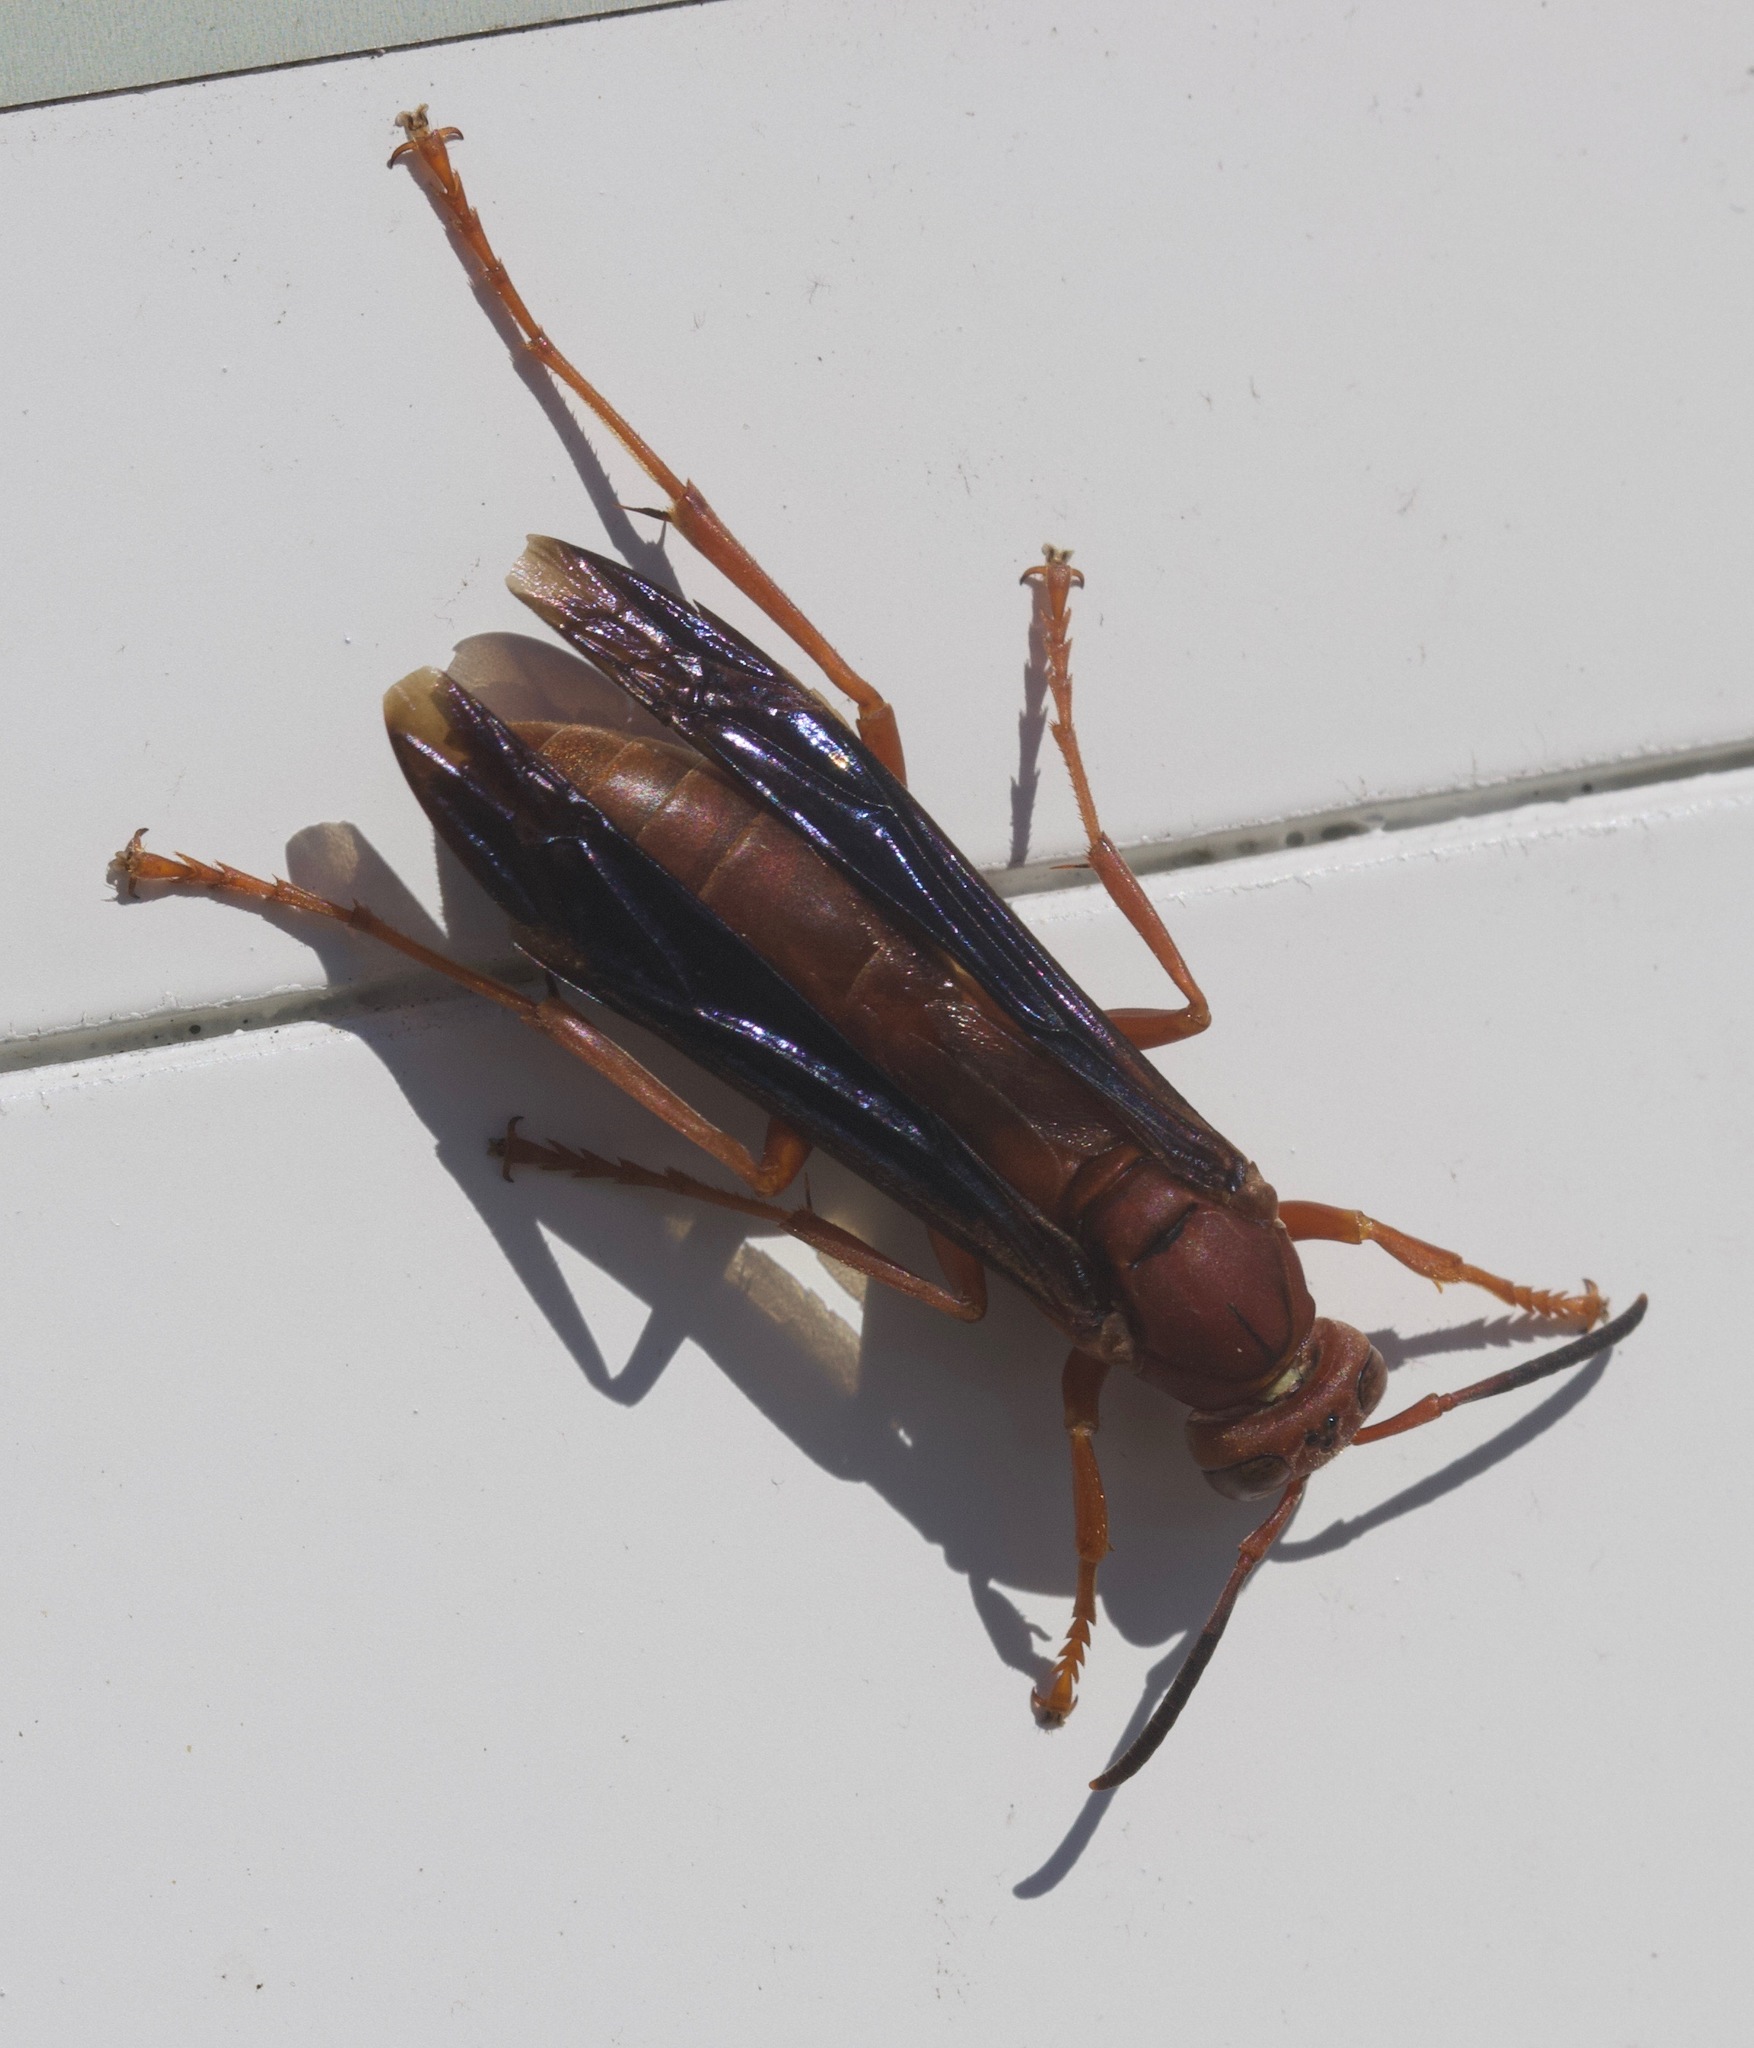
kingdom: Animalia
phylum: Arthropoda
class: Insecta
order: Hymenoptera
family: Vespidae
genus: Fuscopolistes
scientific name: Fuscopolistes
